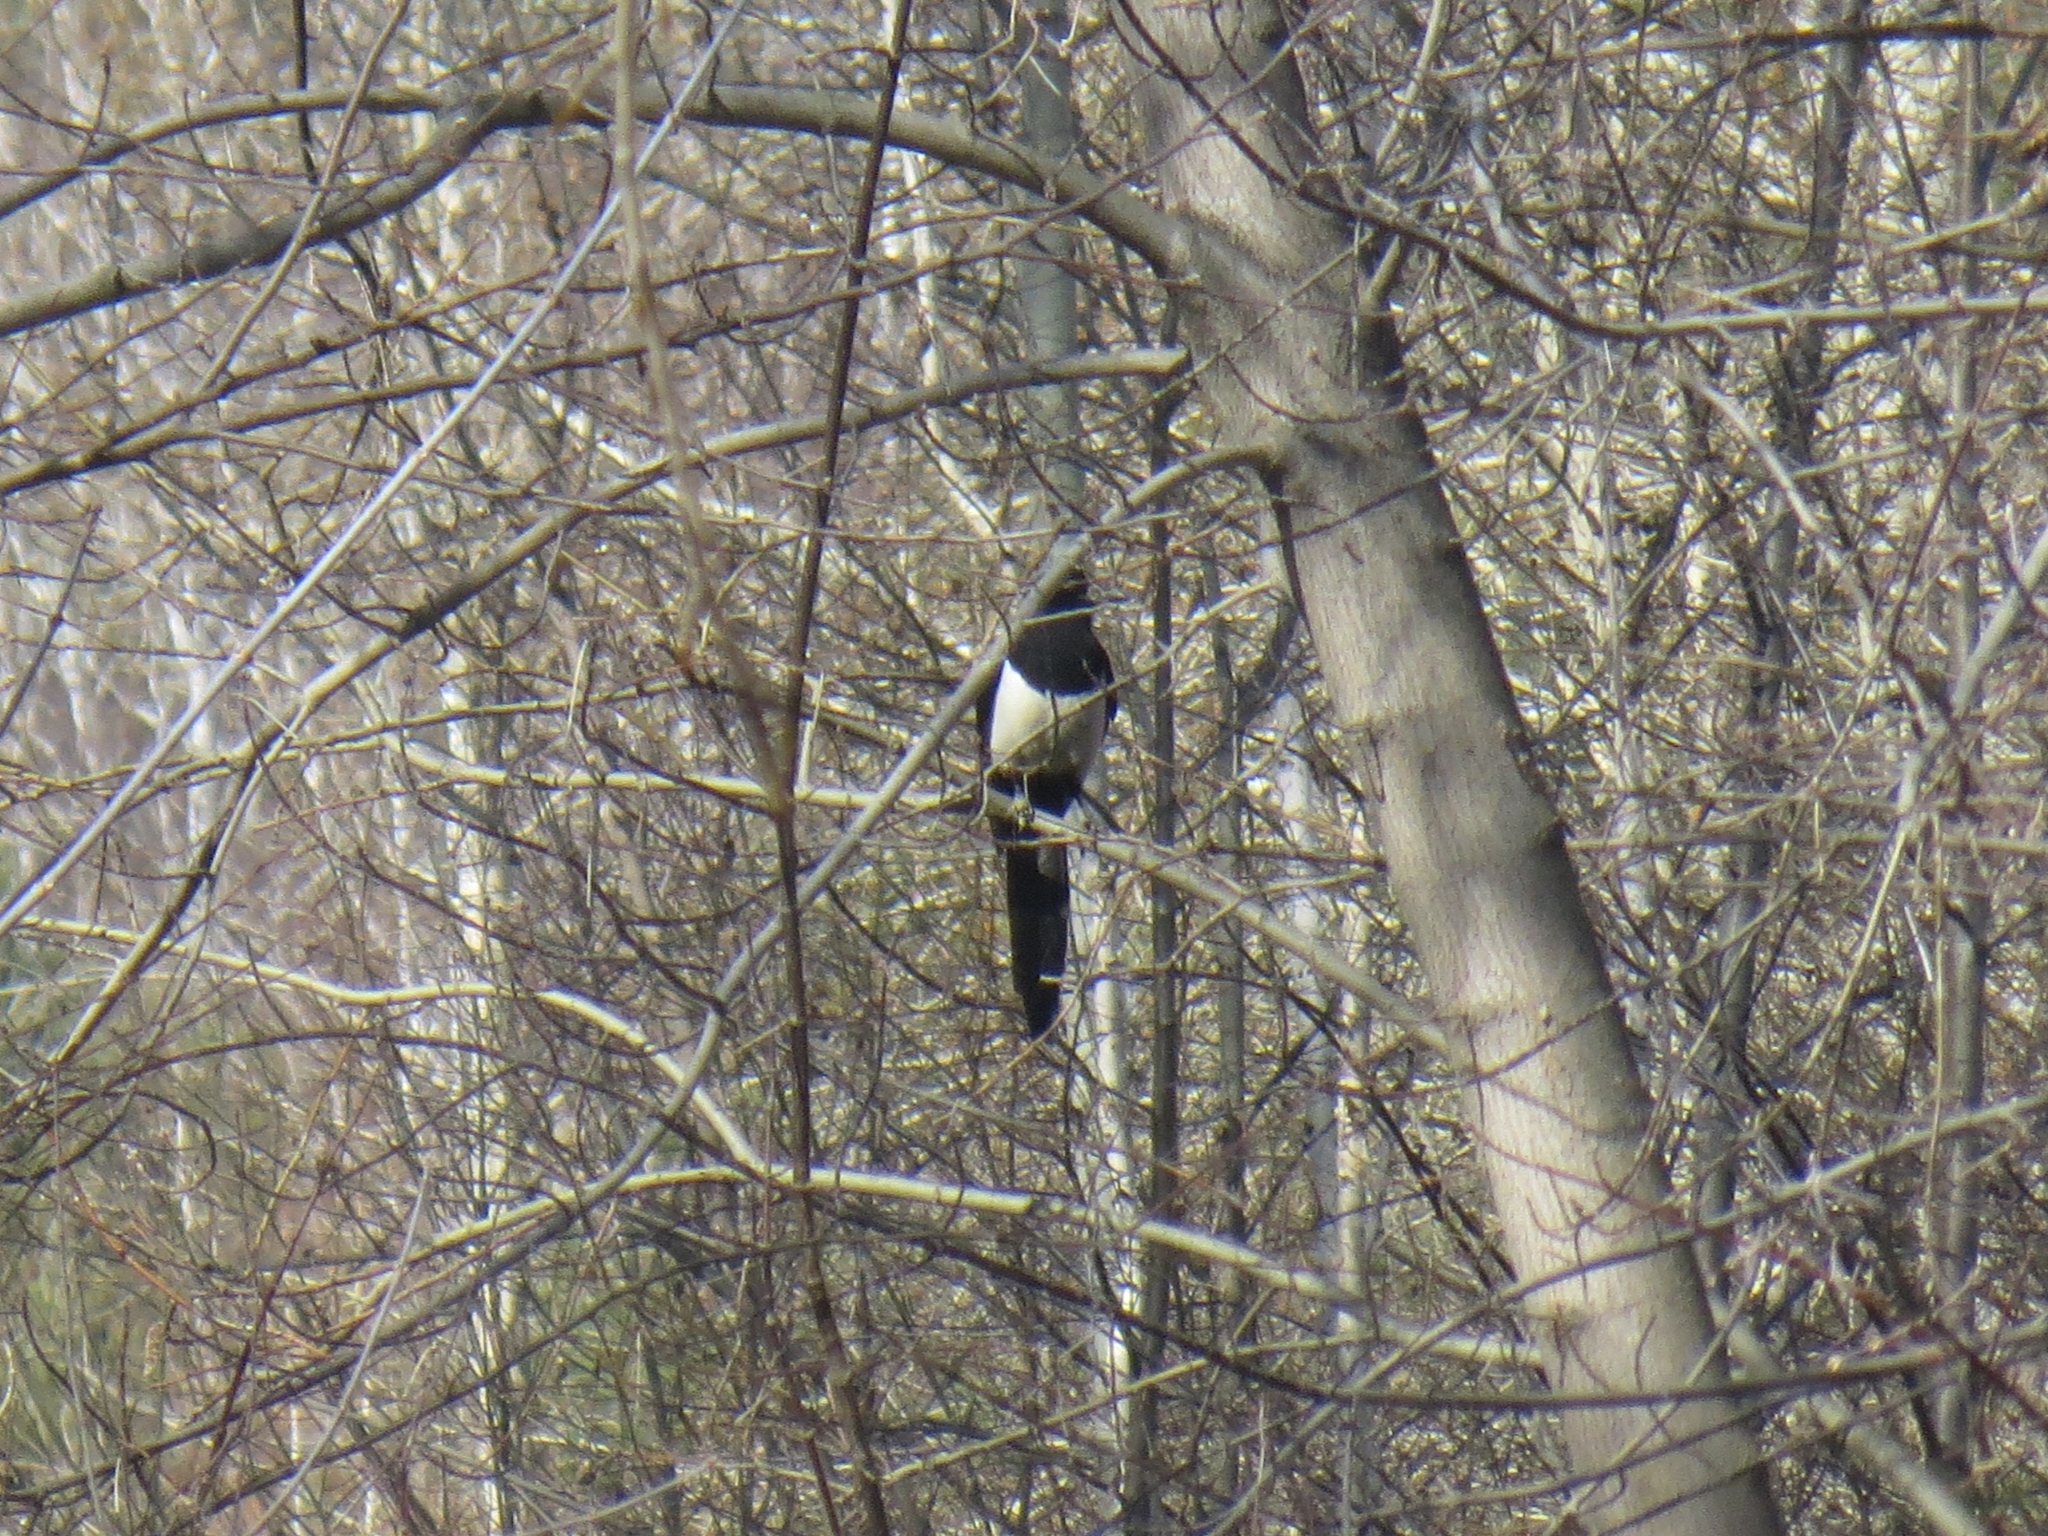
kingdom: Animalia
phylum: Chordata
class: Aves
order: Passeriformes
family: Corvidae
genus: Pica
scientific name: Pica pica
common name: Eurasian magpie
